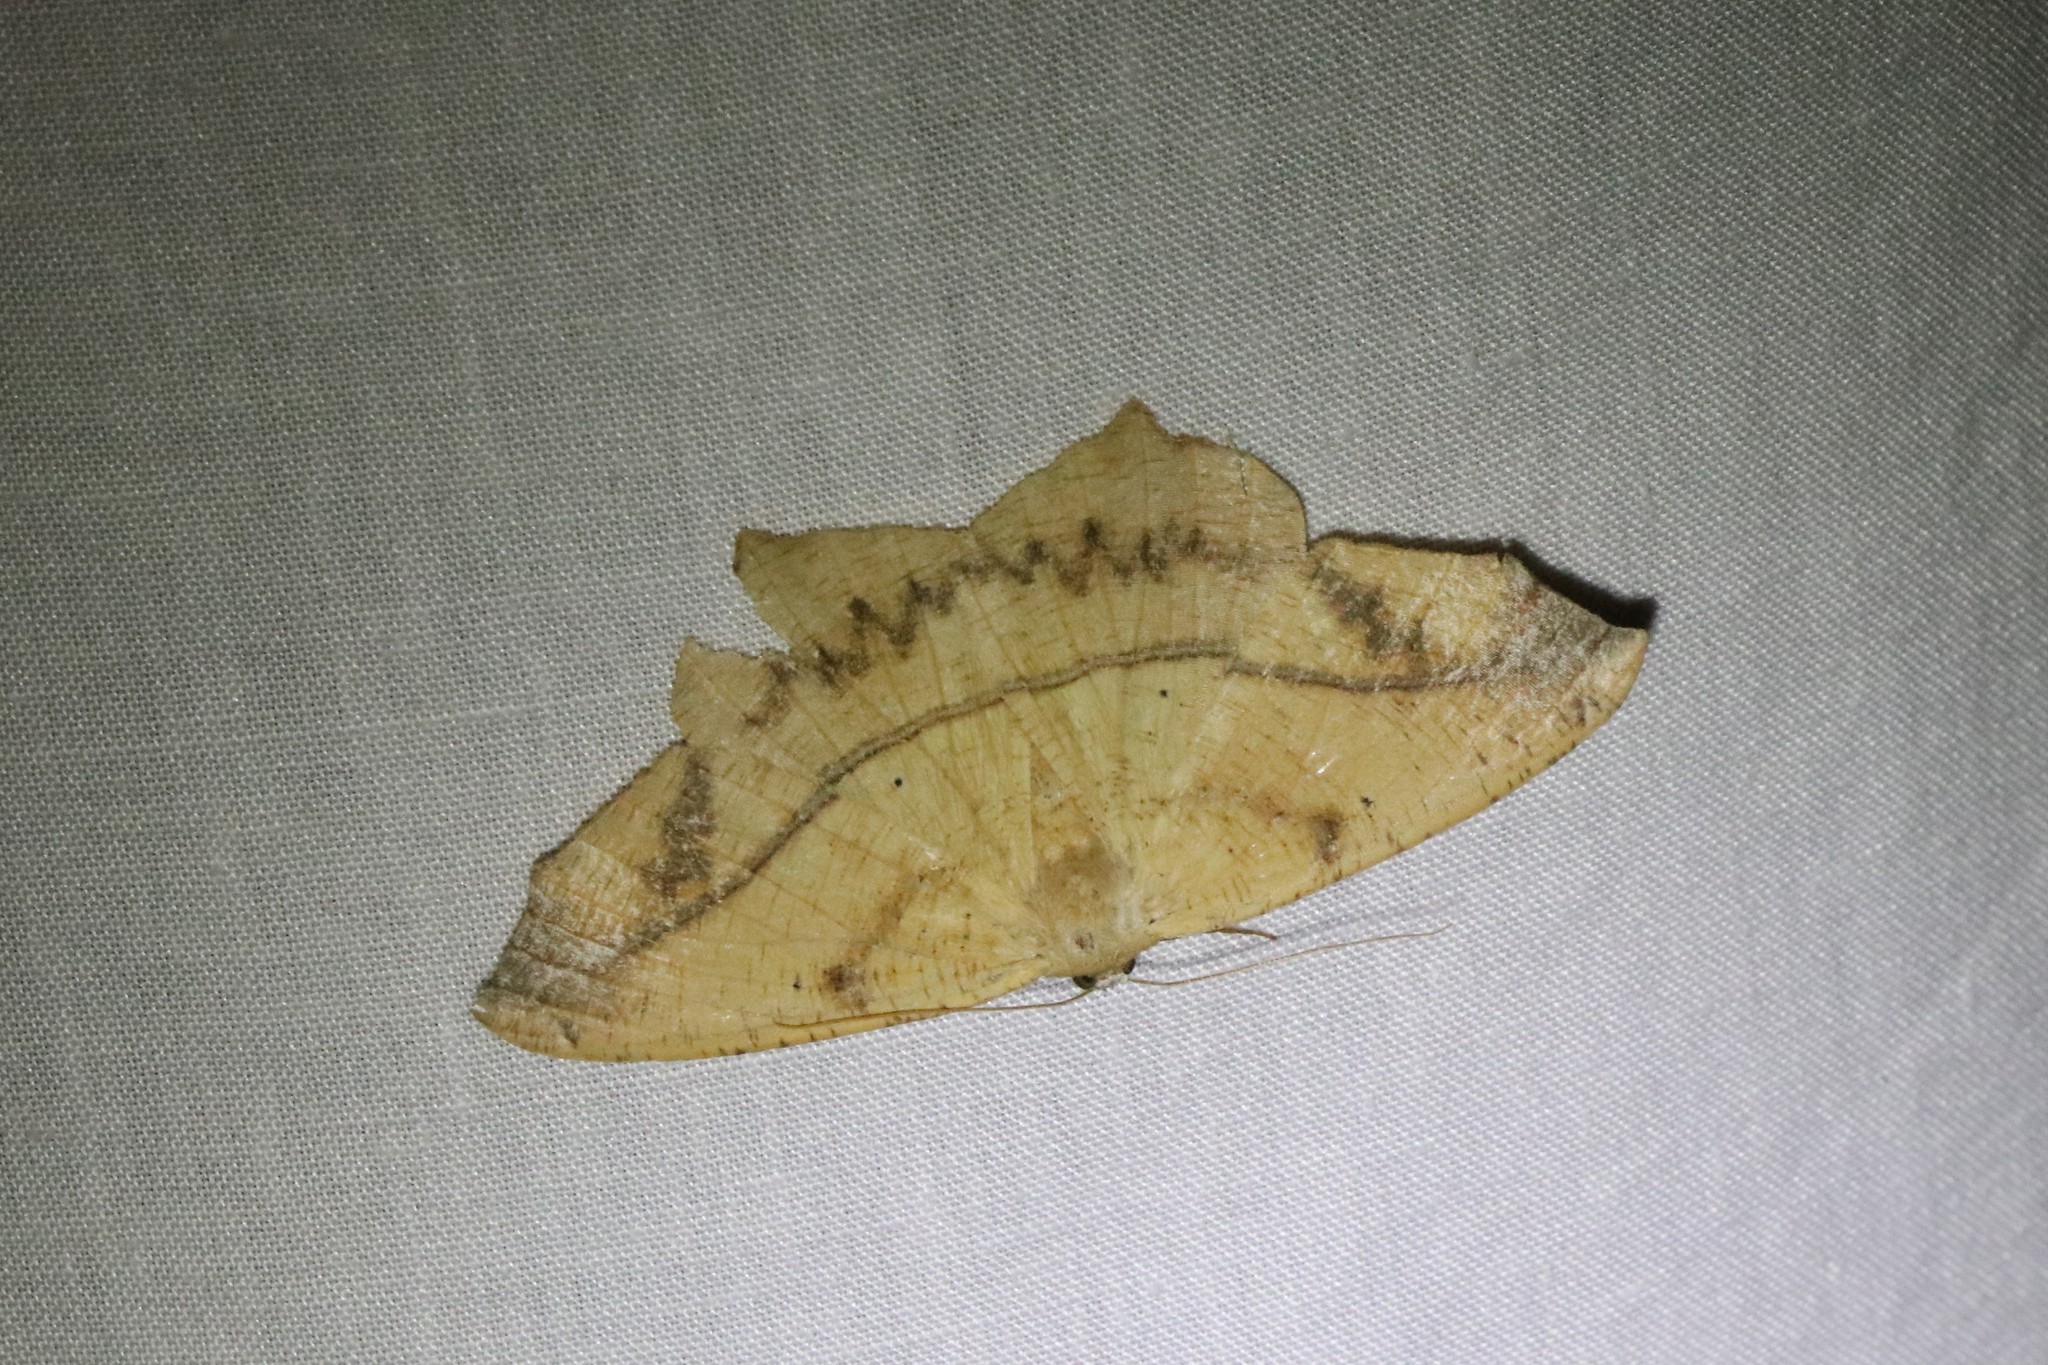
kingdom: Animalia
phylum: Arthropoda
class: Insecta
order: Lepidoptera
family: Geometridae
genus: Prochoerodes
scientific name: Prochoerodes lineola
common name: Large maple spanworm
